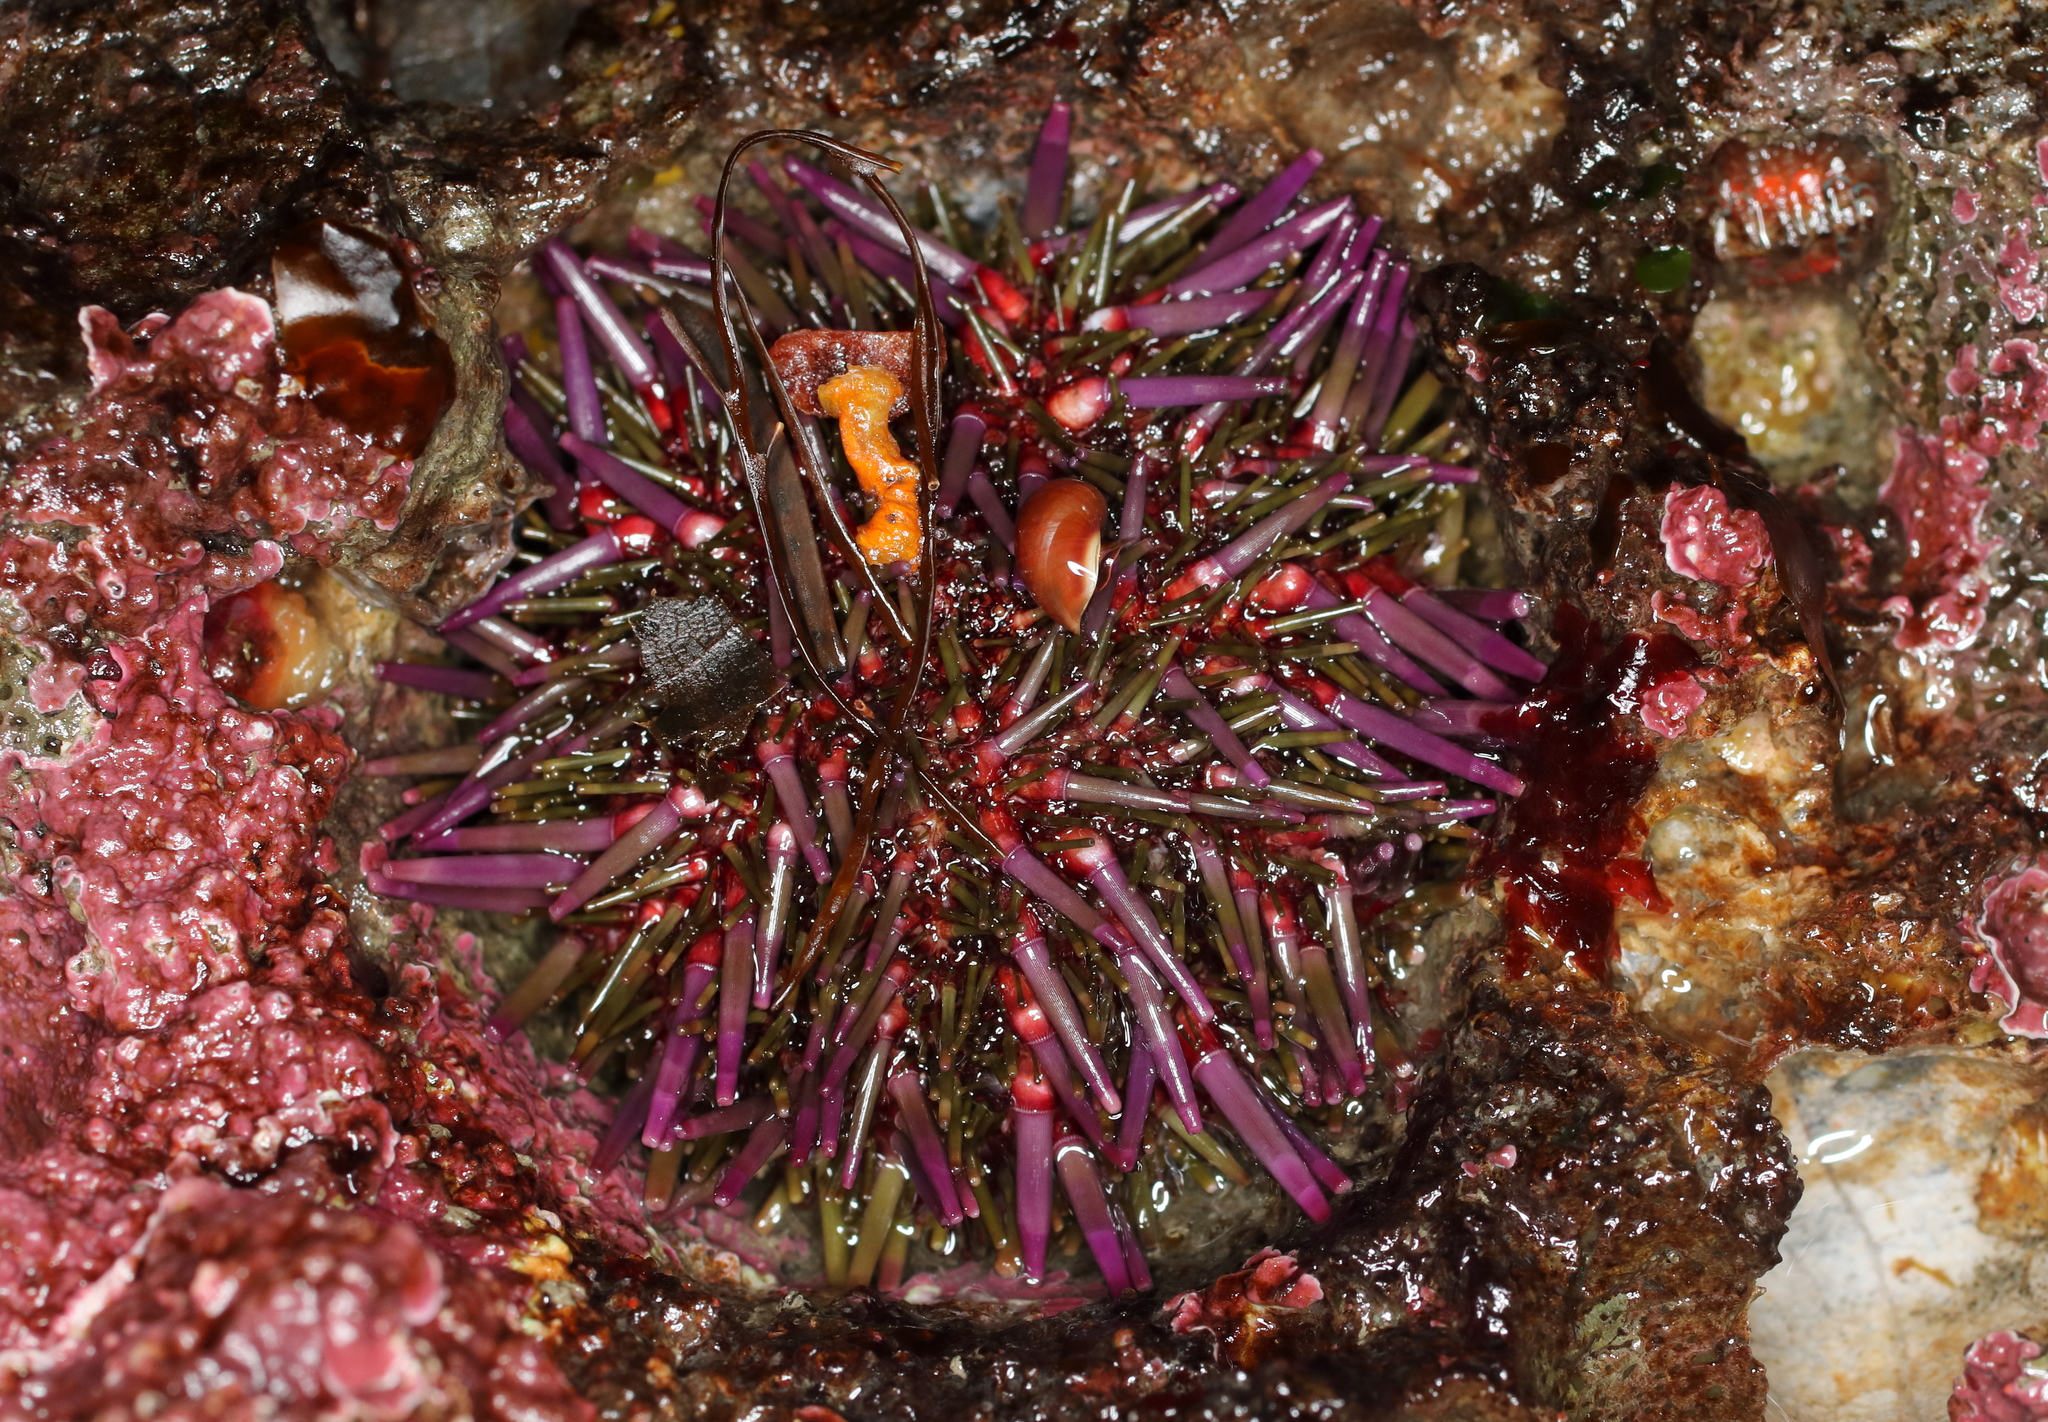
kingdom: Animalia
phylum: Echinodermata
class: Echinoidea
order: Camarodonta
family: Strongylocentrotidae
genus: Strongylocentrotus
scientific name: Strongylocentrotus purpuratus
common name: Purple sea urchin
